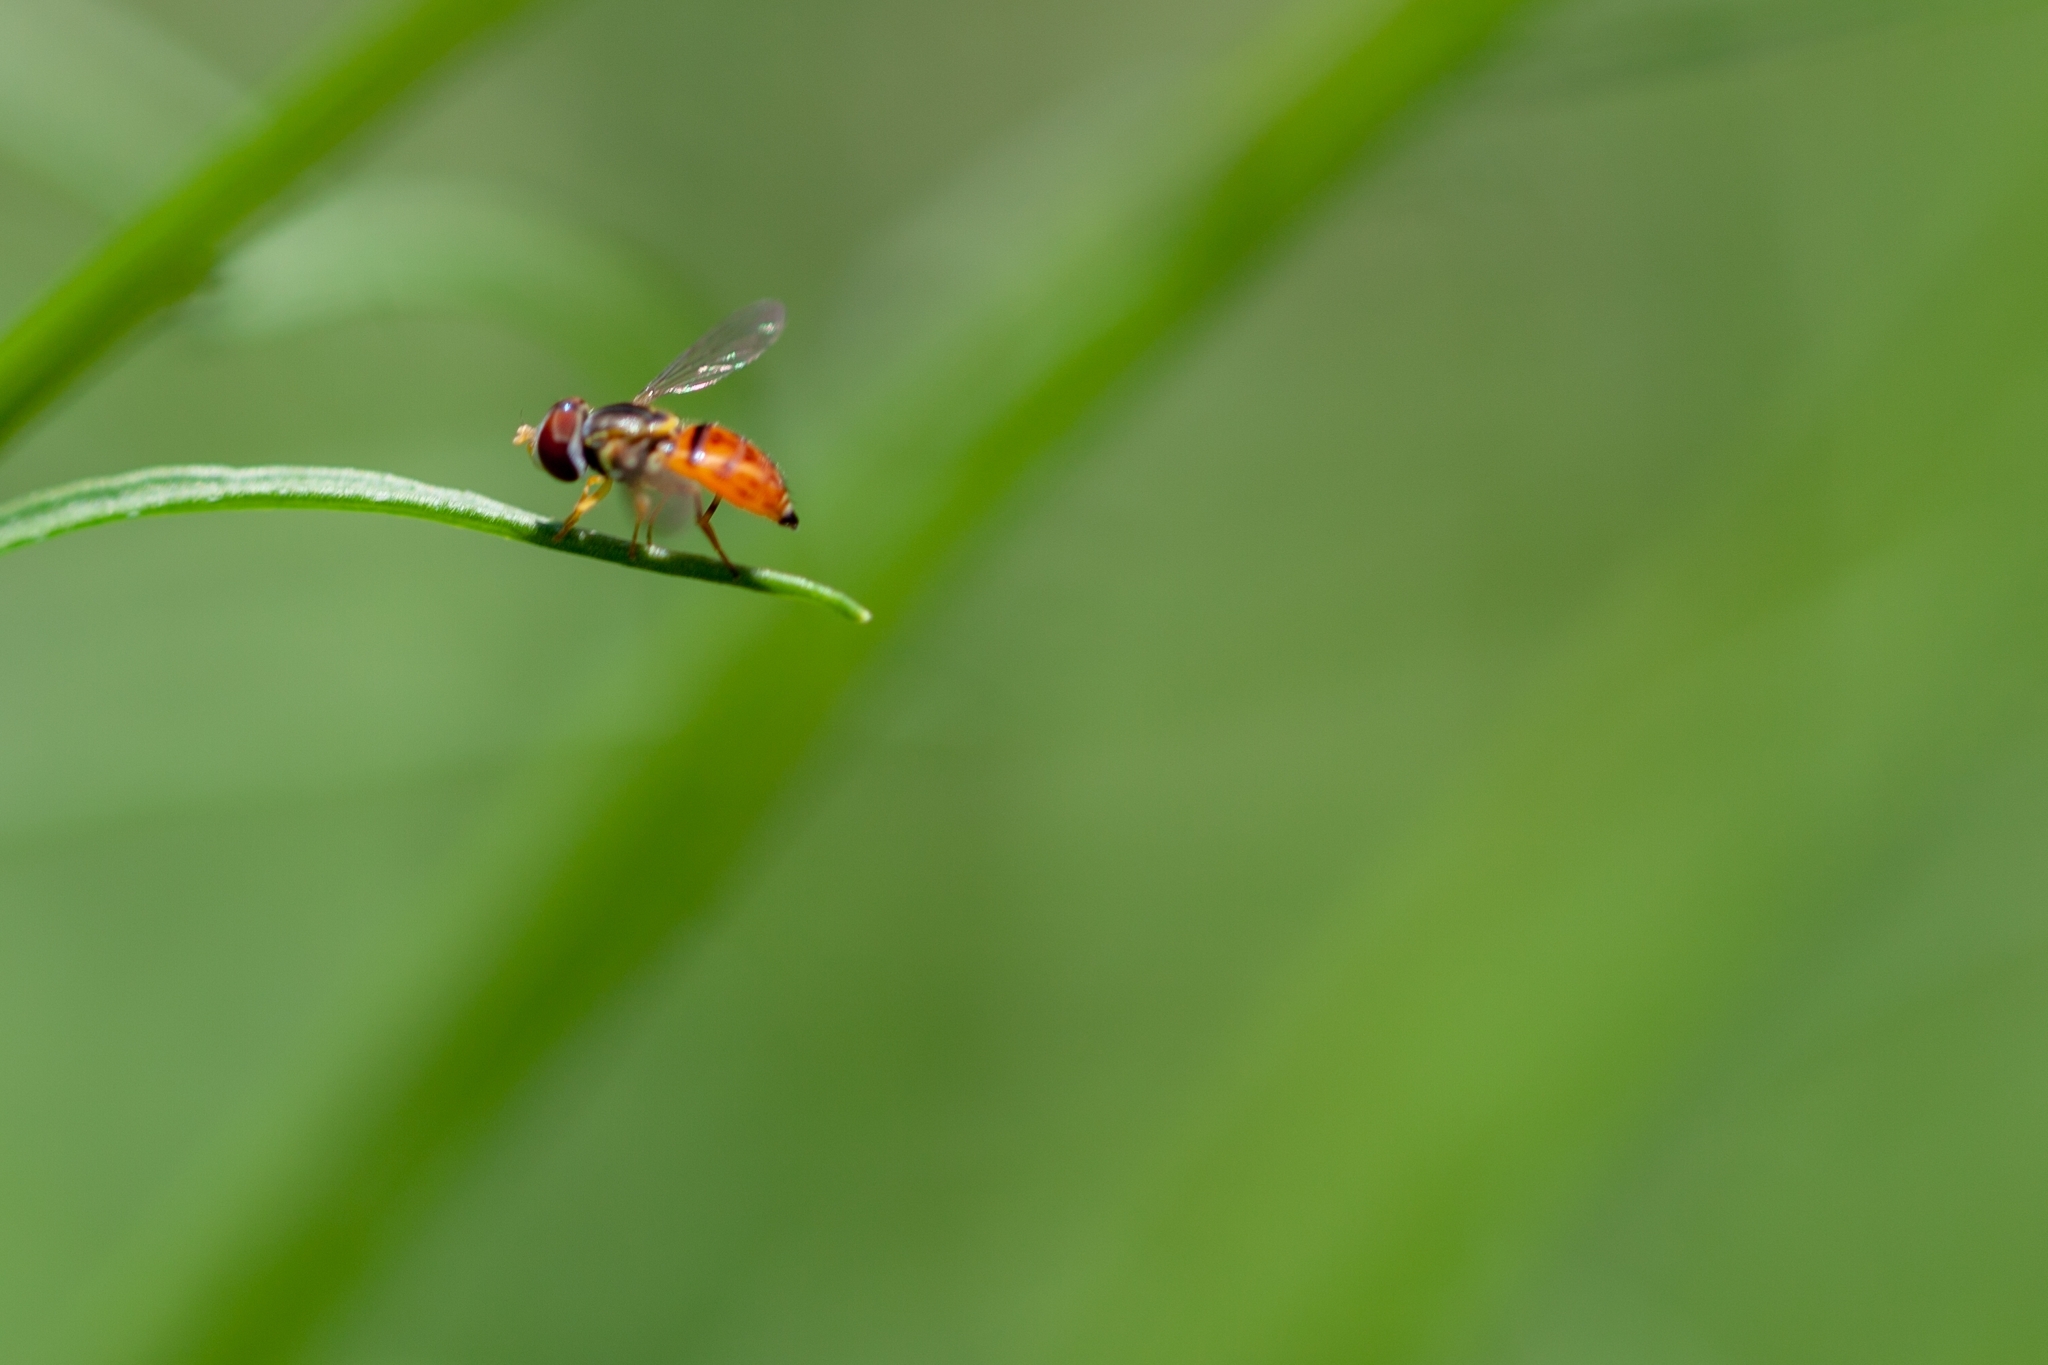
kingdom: Animalia
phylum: Arthropoda
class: Insecta
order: Diptera
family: Syrphidae
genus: Toxomerus
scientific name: Toxomerus boscii
